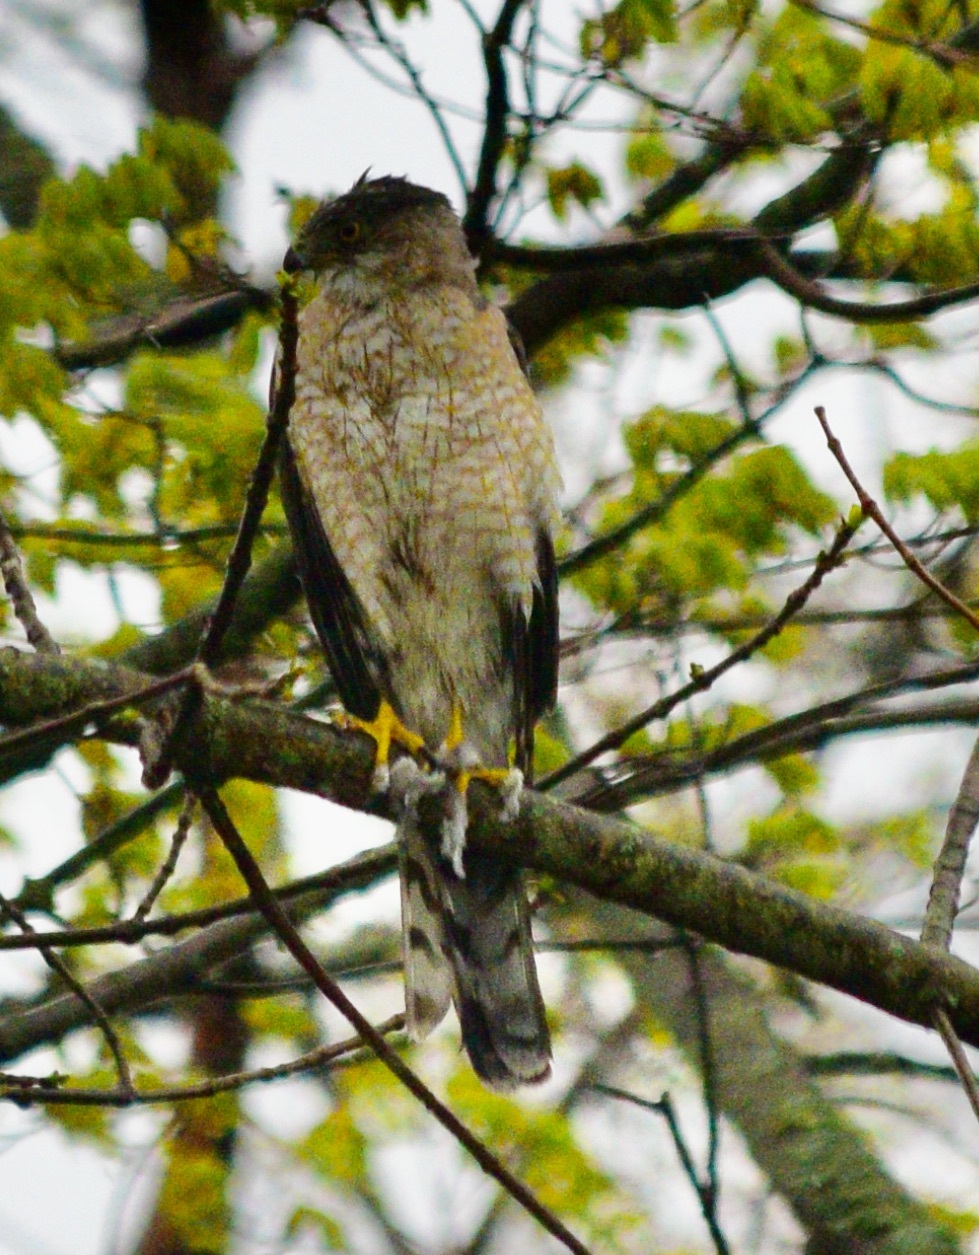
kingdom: Animalia
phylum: Chordata
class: Aves
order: Accipitriformes
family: Accipitridae
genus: Accipiter
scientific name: Accipiter cooperii
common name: Cooper's hawk
